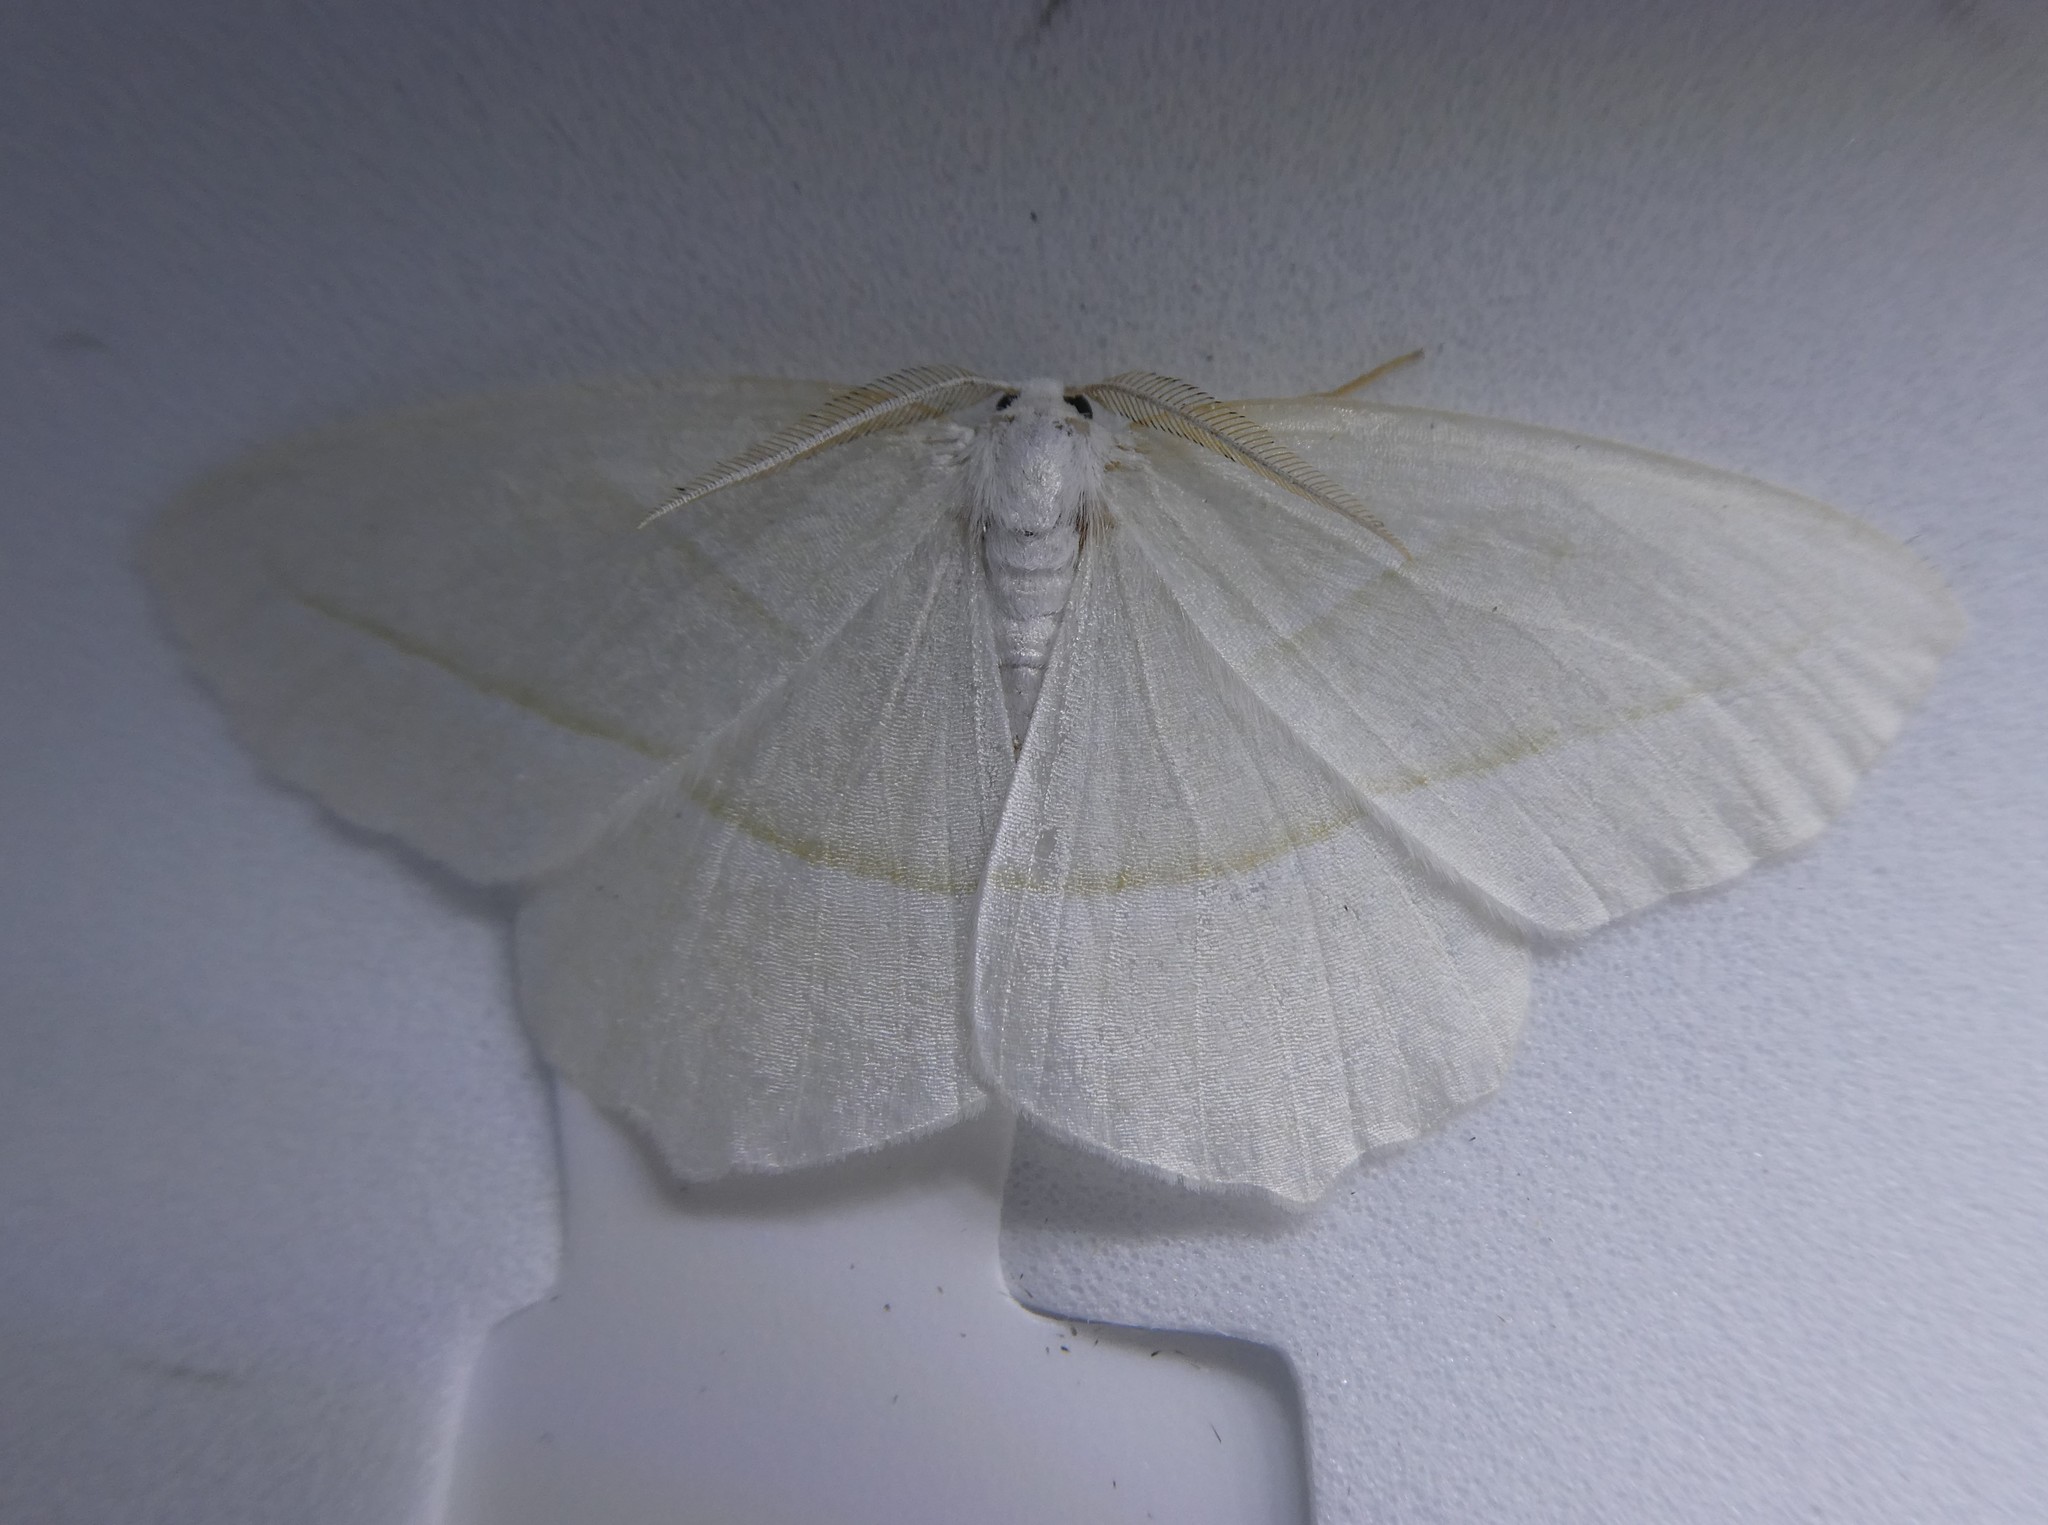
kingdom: Animalia
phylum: Arthropoda
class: Insecta
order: Lepidoptera
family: Geometridae
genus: Campaea
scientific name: Campaea perlata
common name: Fringed looper
